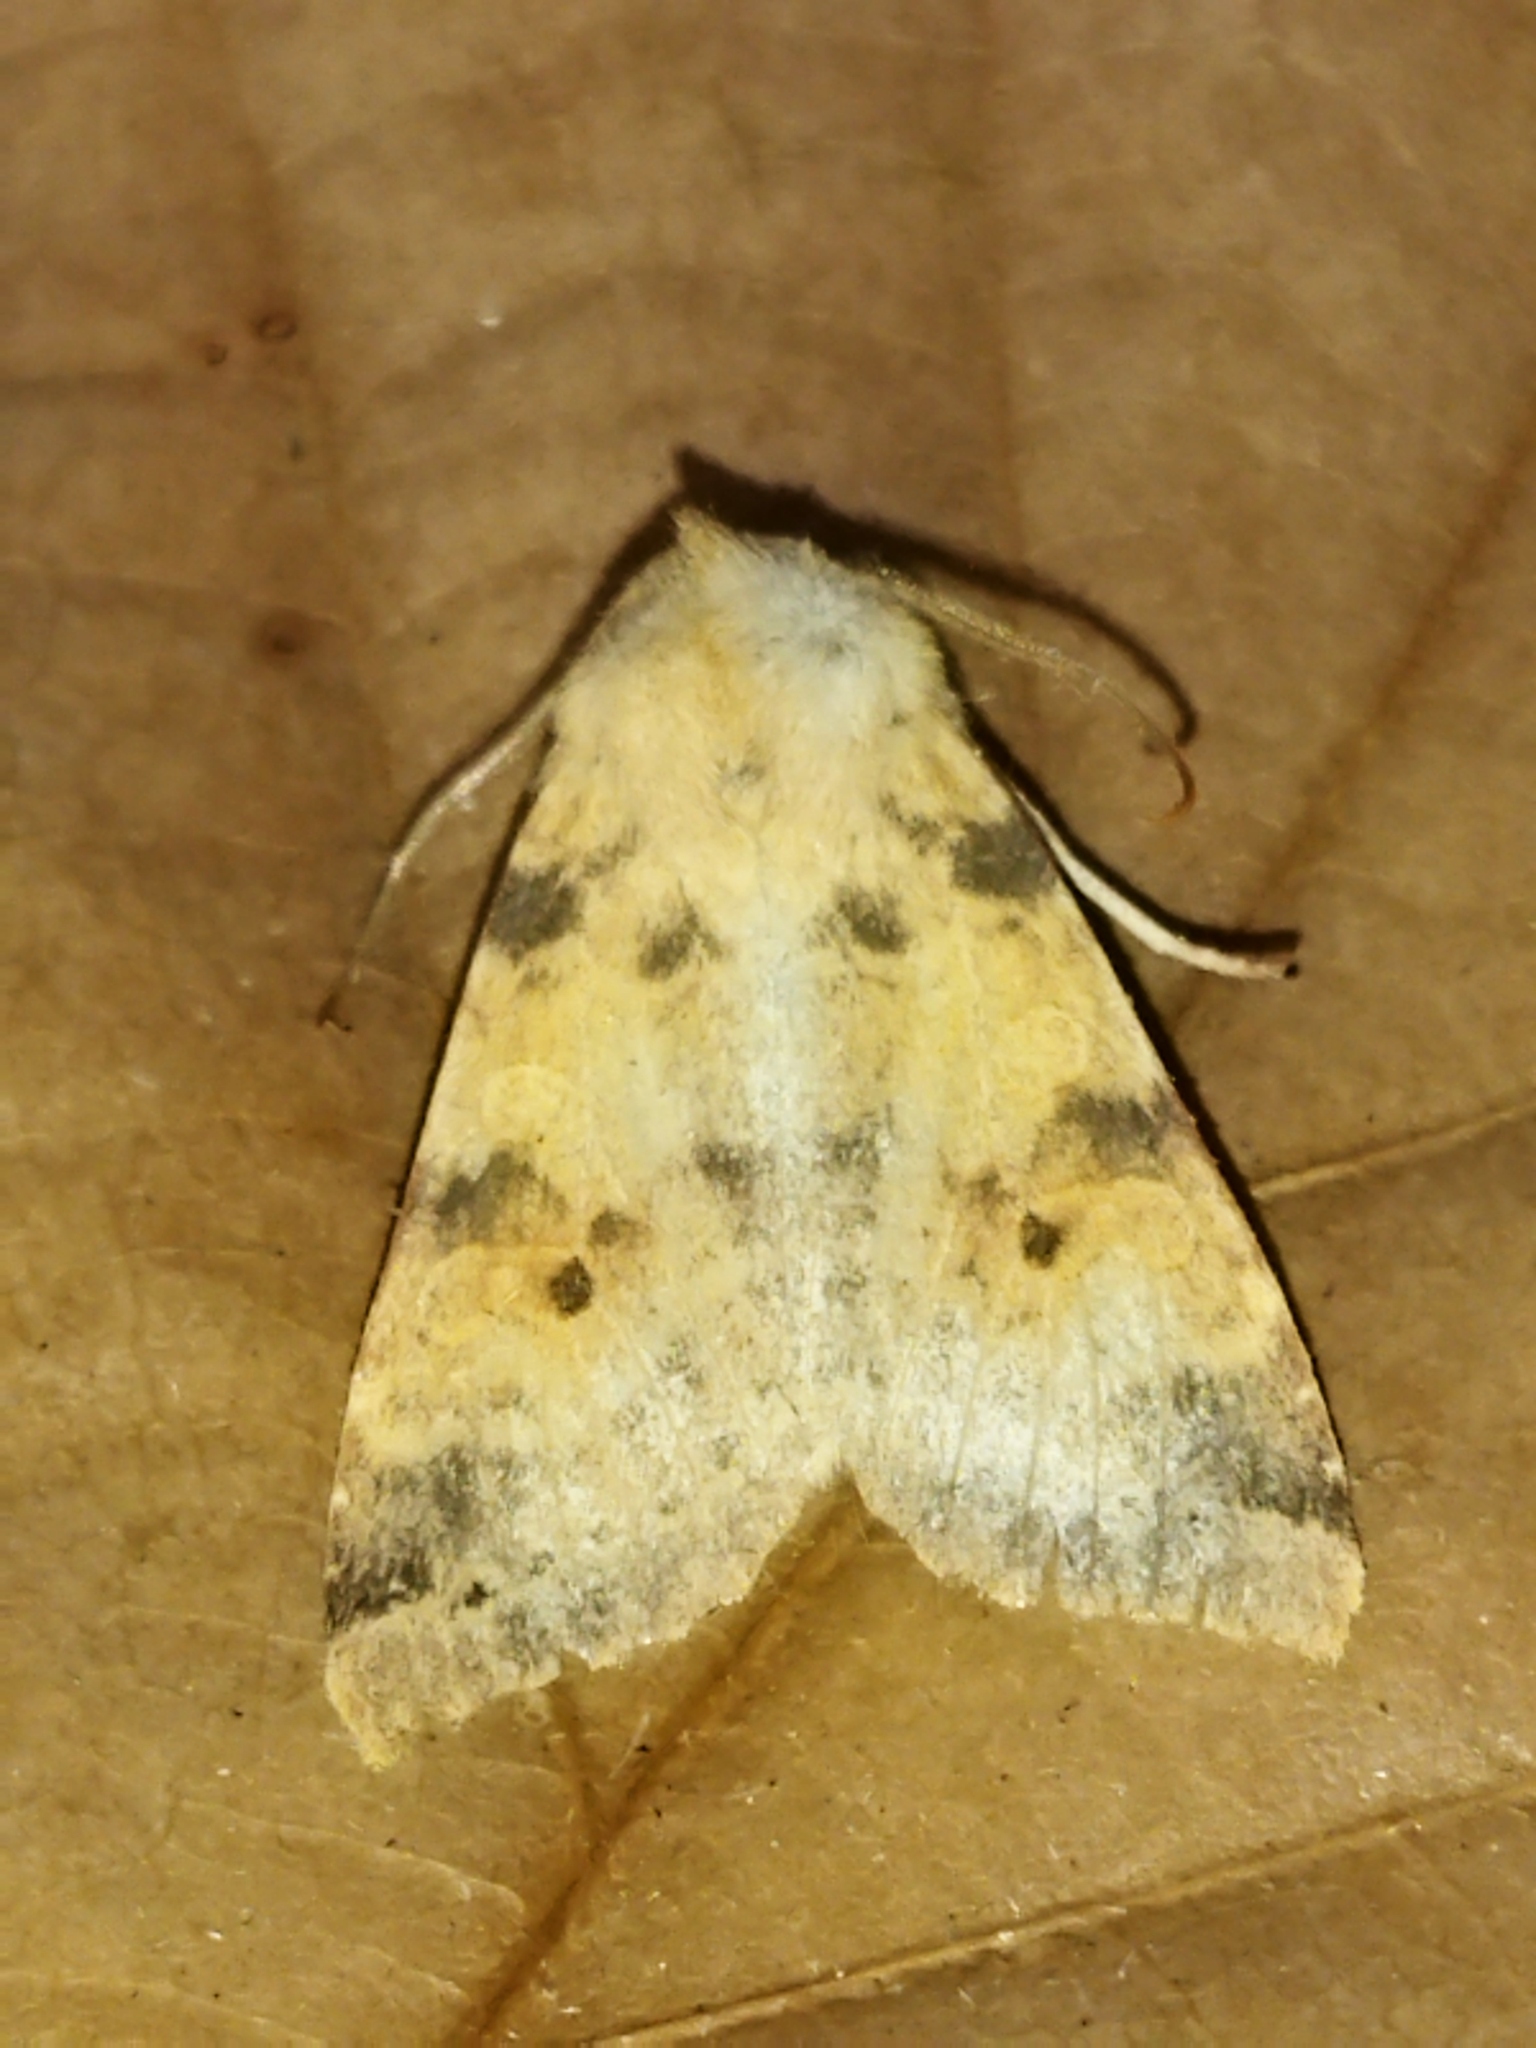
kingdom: Animalia
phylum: Arthropoda
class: Insecta
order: Lepidoptera
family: Noctuidae
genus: Xanthia
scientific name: Xanthia icteritia
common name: The sallow
